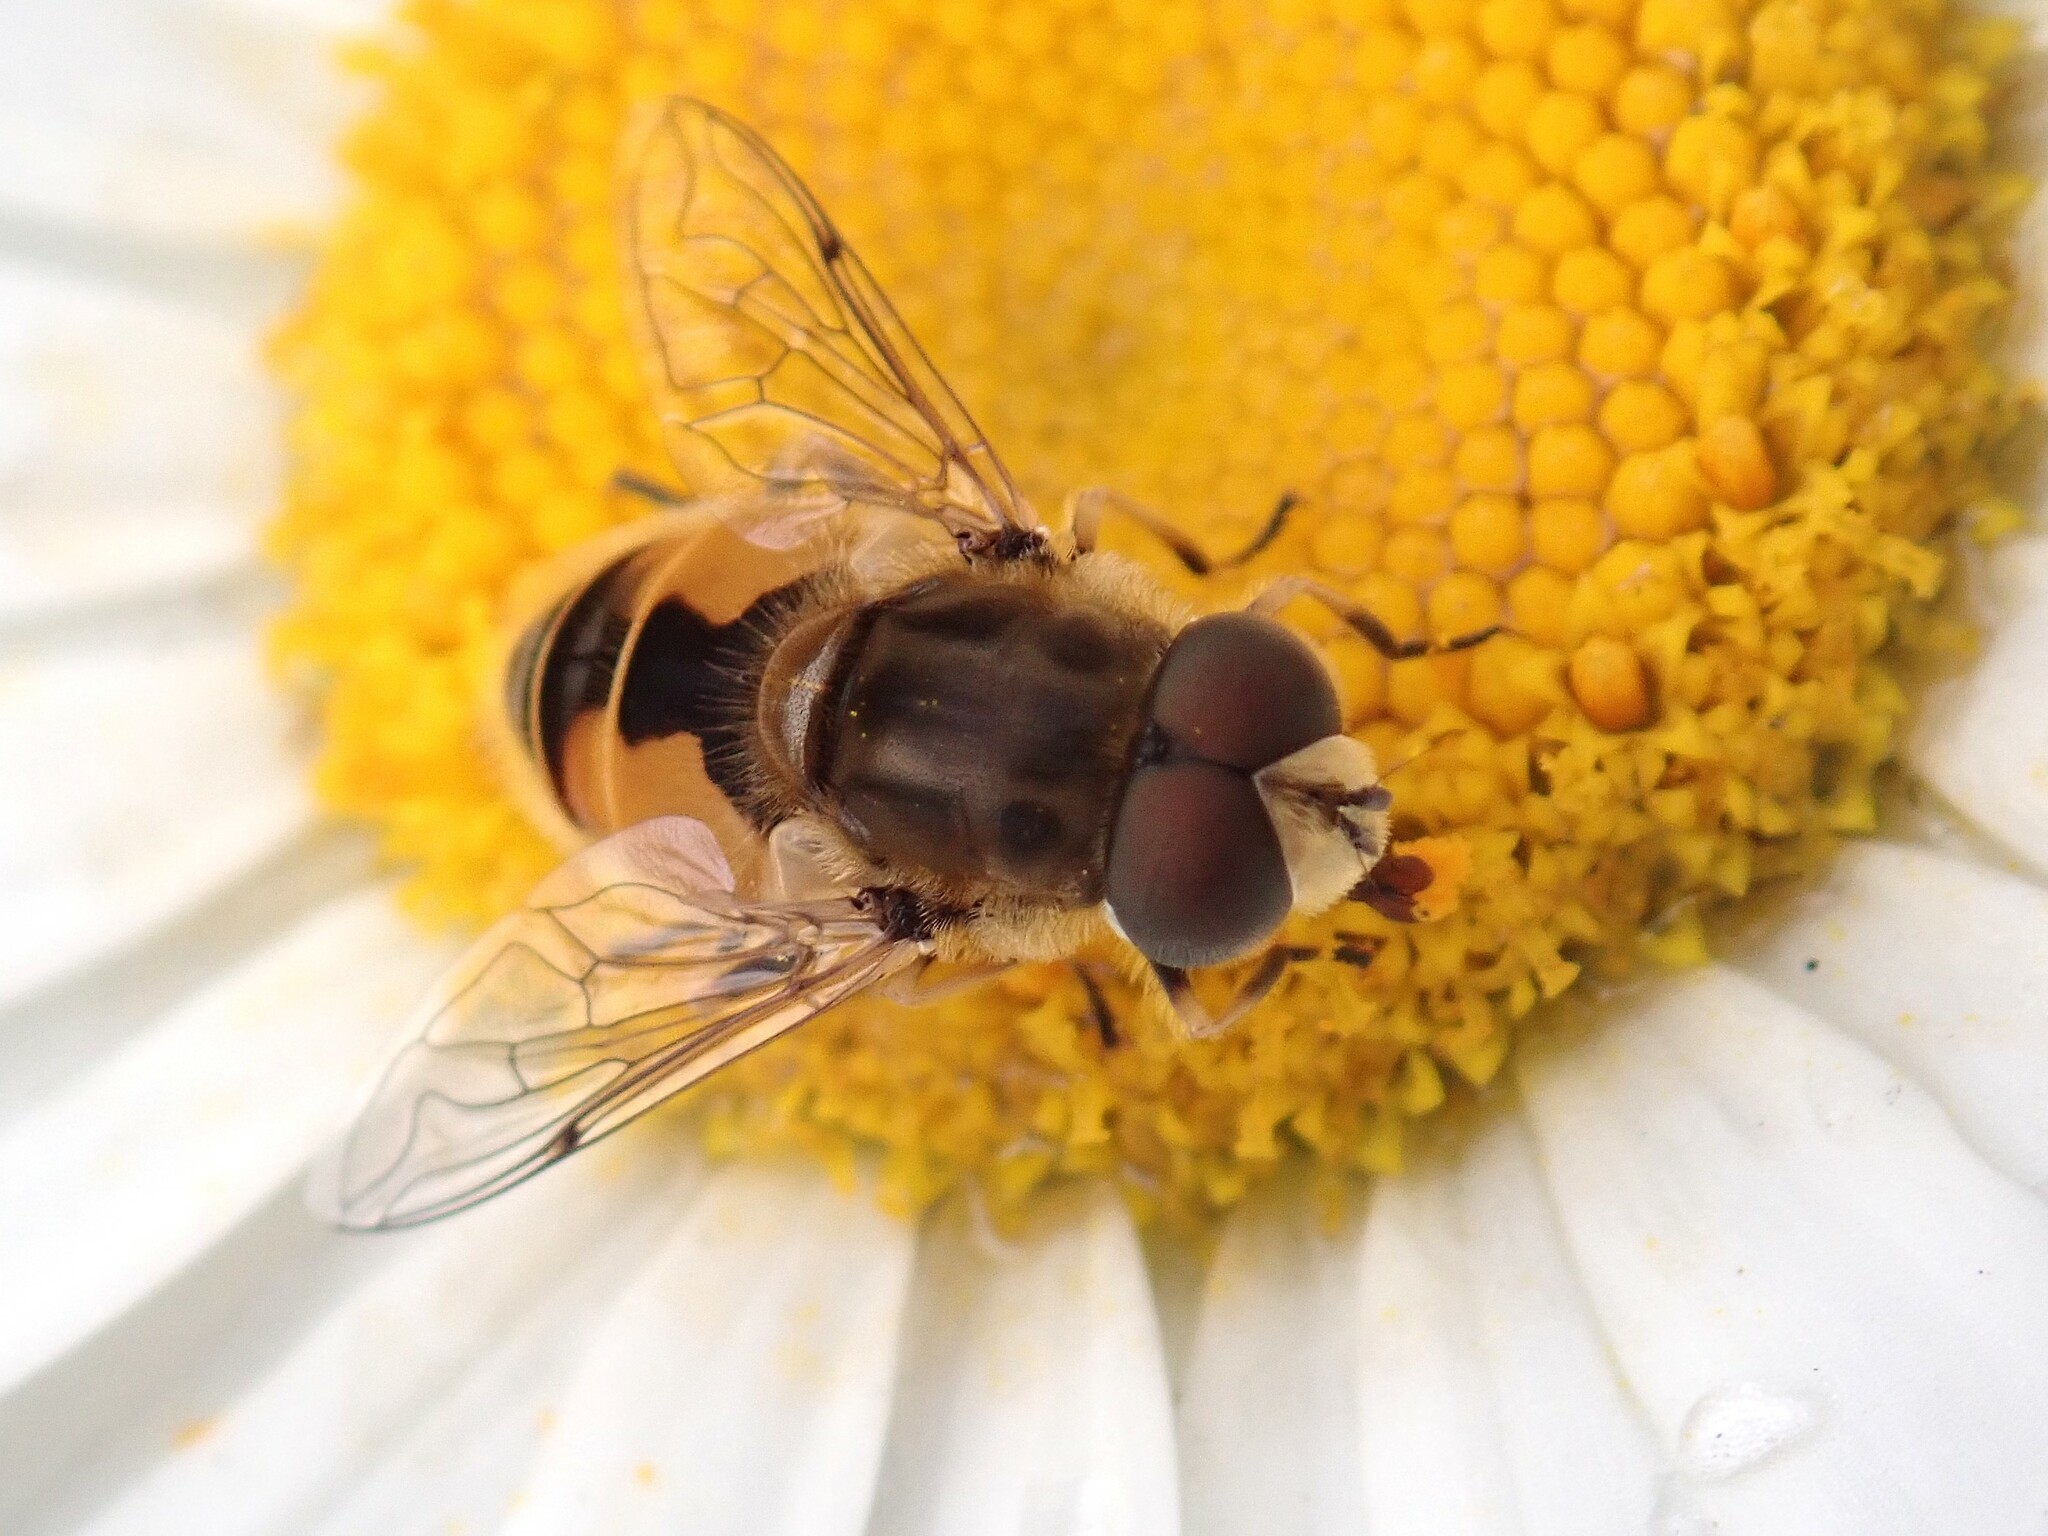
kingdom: Animalia
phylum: Arthropoda
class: Insecta
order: Diptera
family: Syrphidae
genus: Eristalis
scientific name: Eristalis arbustorum
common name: Hover fly
